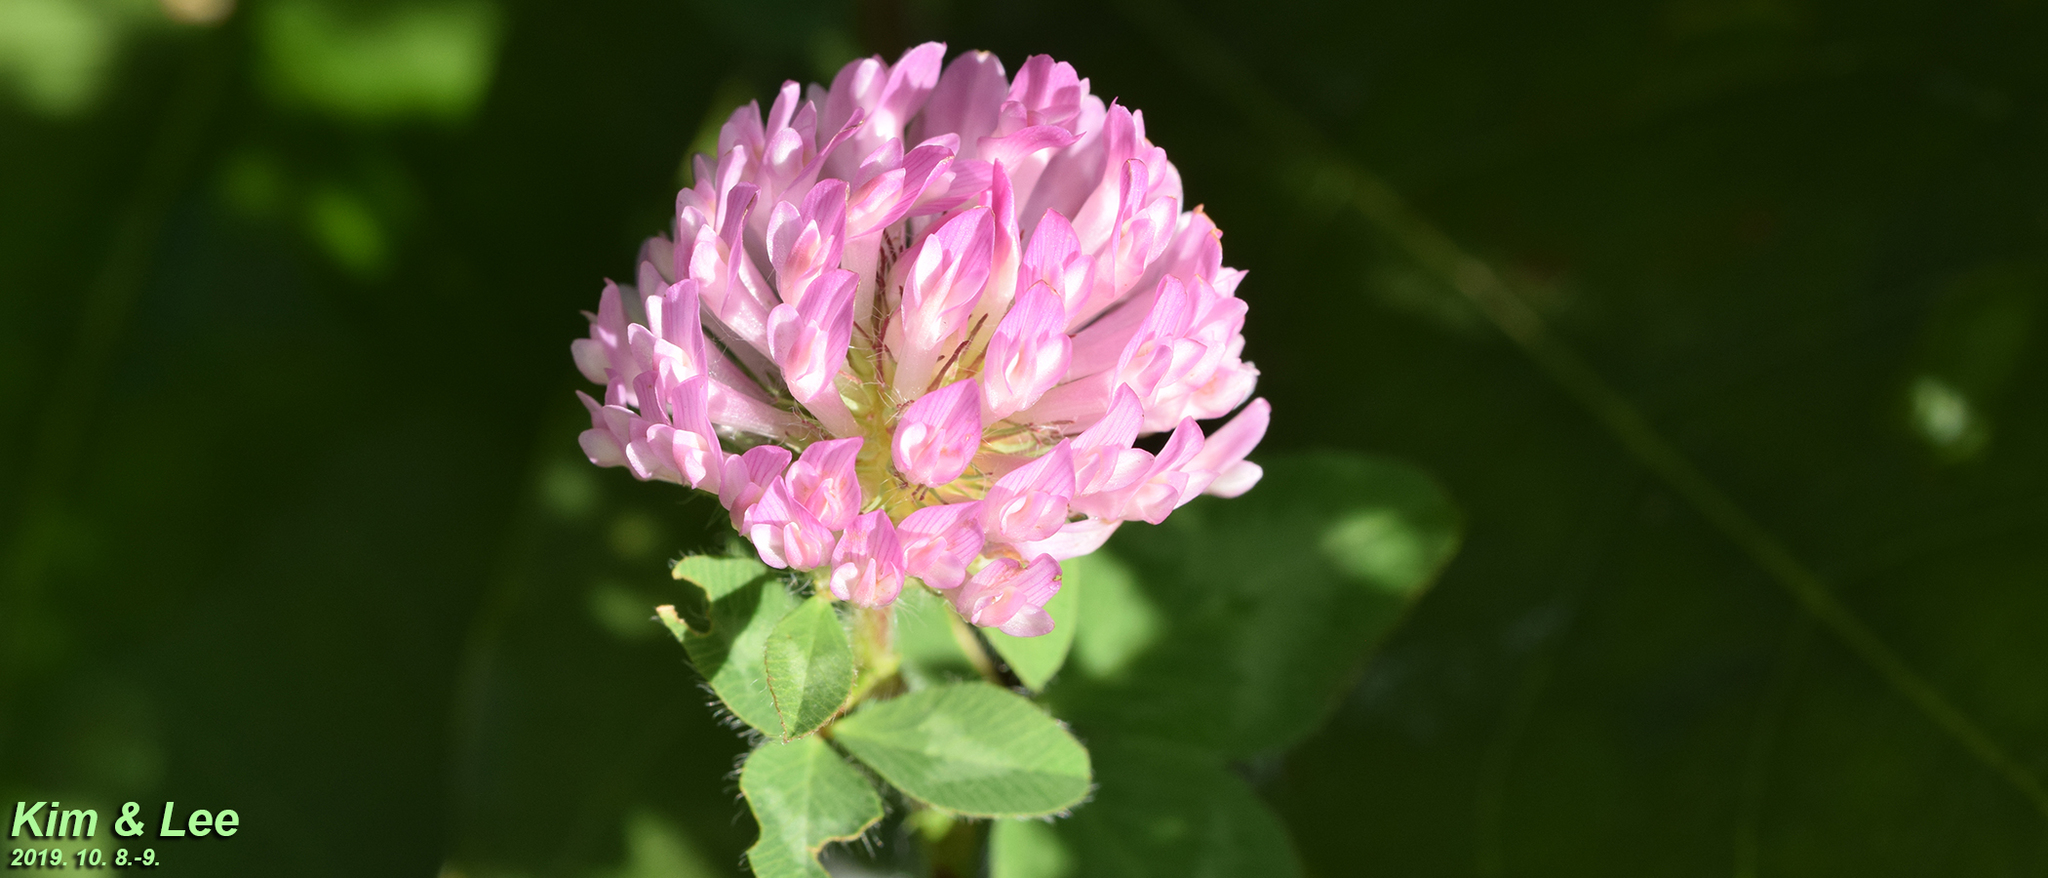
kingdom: Plantae
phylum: Tracheophyta
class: Magnoliopsida
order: Fabales
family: Fabaceae
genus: Trifolium
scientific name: Trifolium pratense
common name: Red clover
